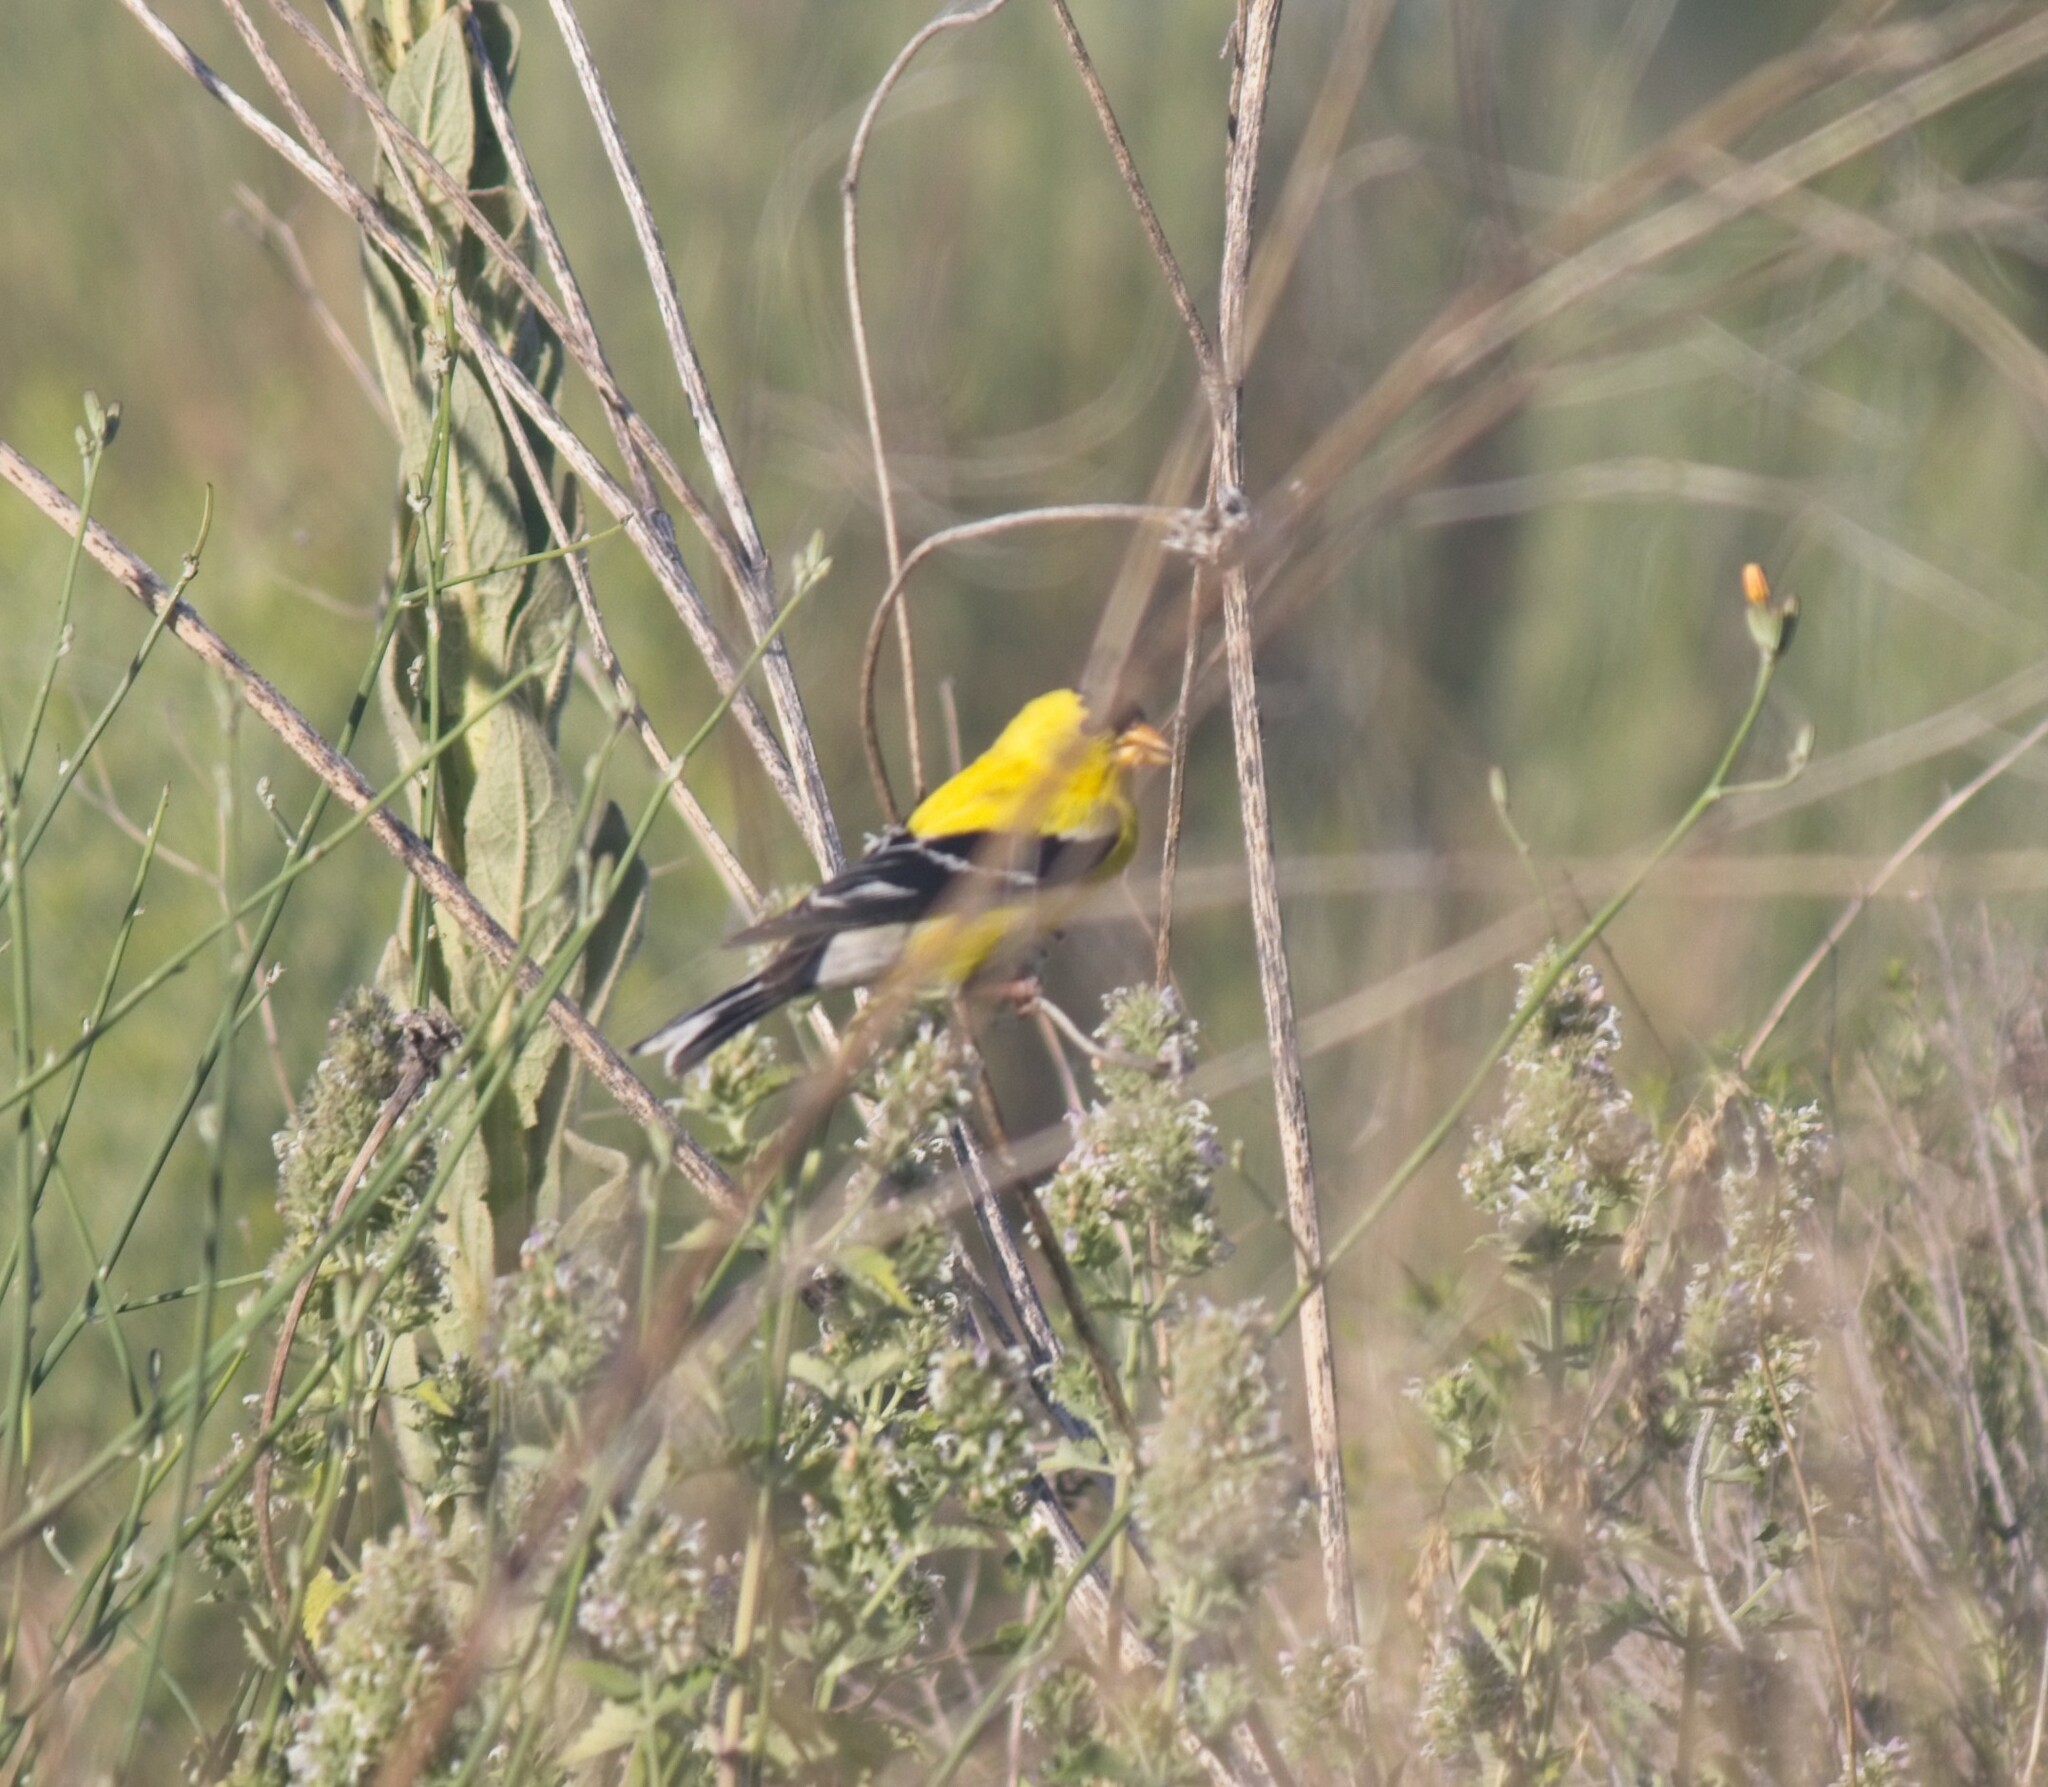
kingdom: Animalia
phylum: Chordata
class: Aves
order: Passeriformes
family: Fringillidae
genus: Spinus
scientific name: Spinus tristis
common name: American goldfinch
